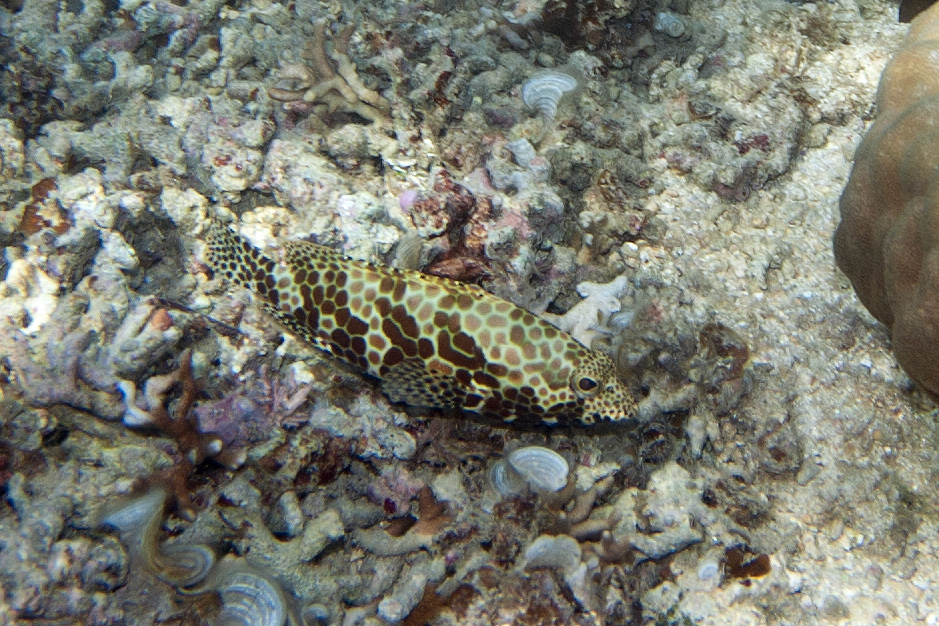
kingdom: Animalia
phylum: Chordata
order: Perciformes
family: Serranidae
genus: Epinephelus
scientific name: Epinephelus merra
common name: Honeycomb grouper
